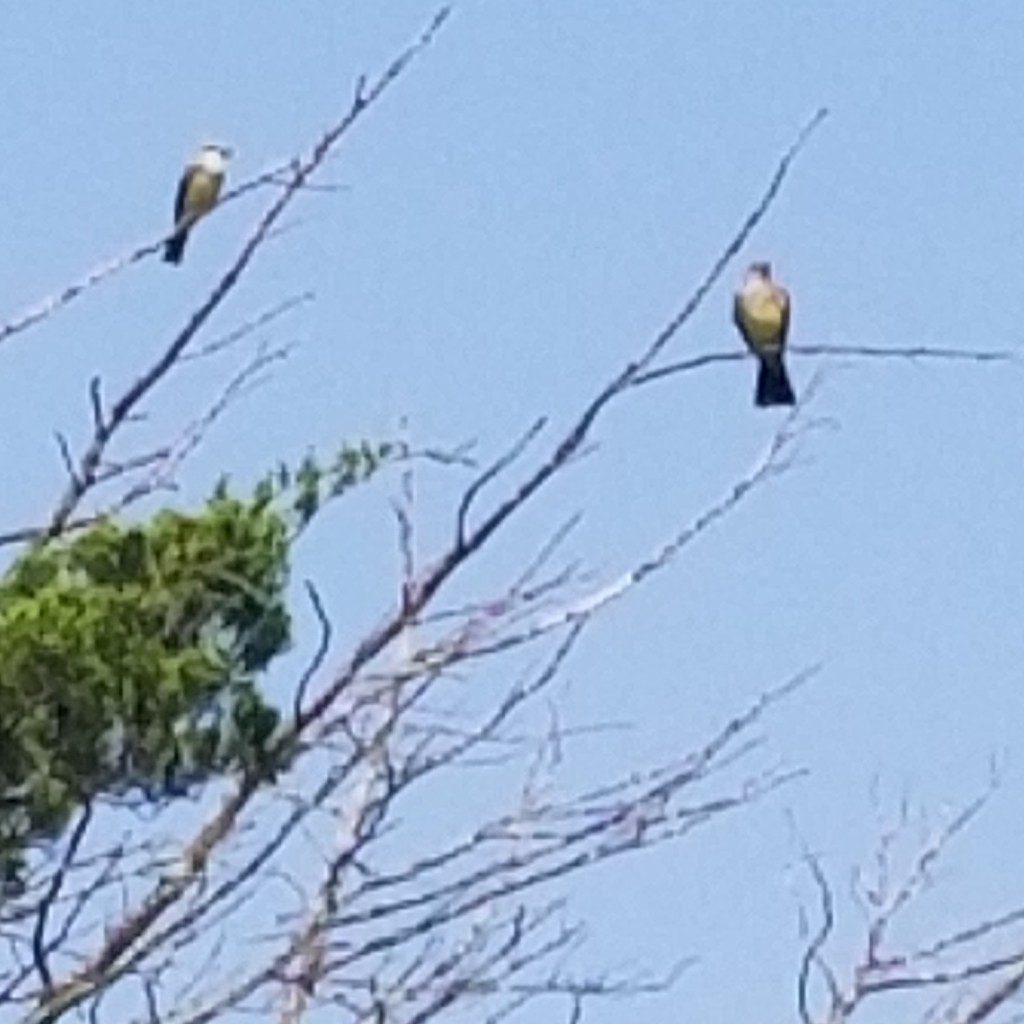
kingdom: Animalia
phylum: Chordata
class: Aves
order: Passeriformes
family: Tyrannidae
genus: Tyrannus
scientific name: Tyrannus verticalis
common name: Western kingbird
